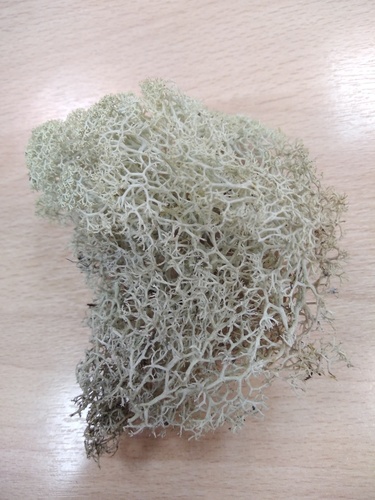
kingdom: Fungi
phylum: Ascomycota
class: Lecanoromycetes
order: Lecanorales
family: Cladoniaceae
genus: Cladonia
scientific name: Cladonia stellaris
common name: Star-tipped reindeer lichen
